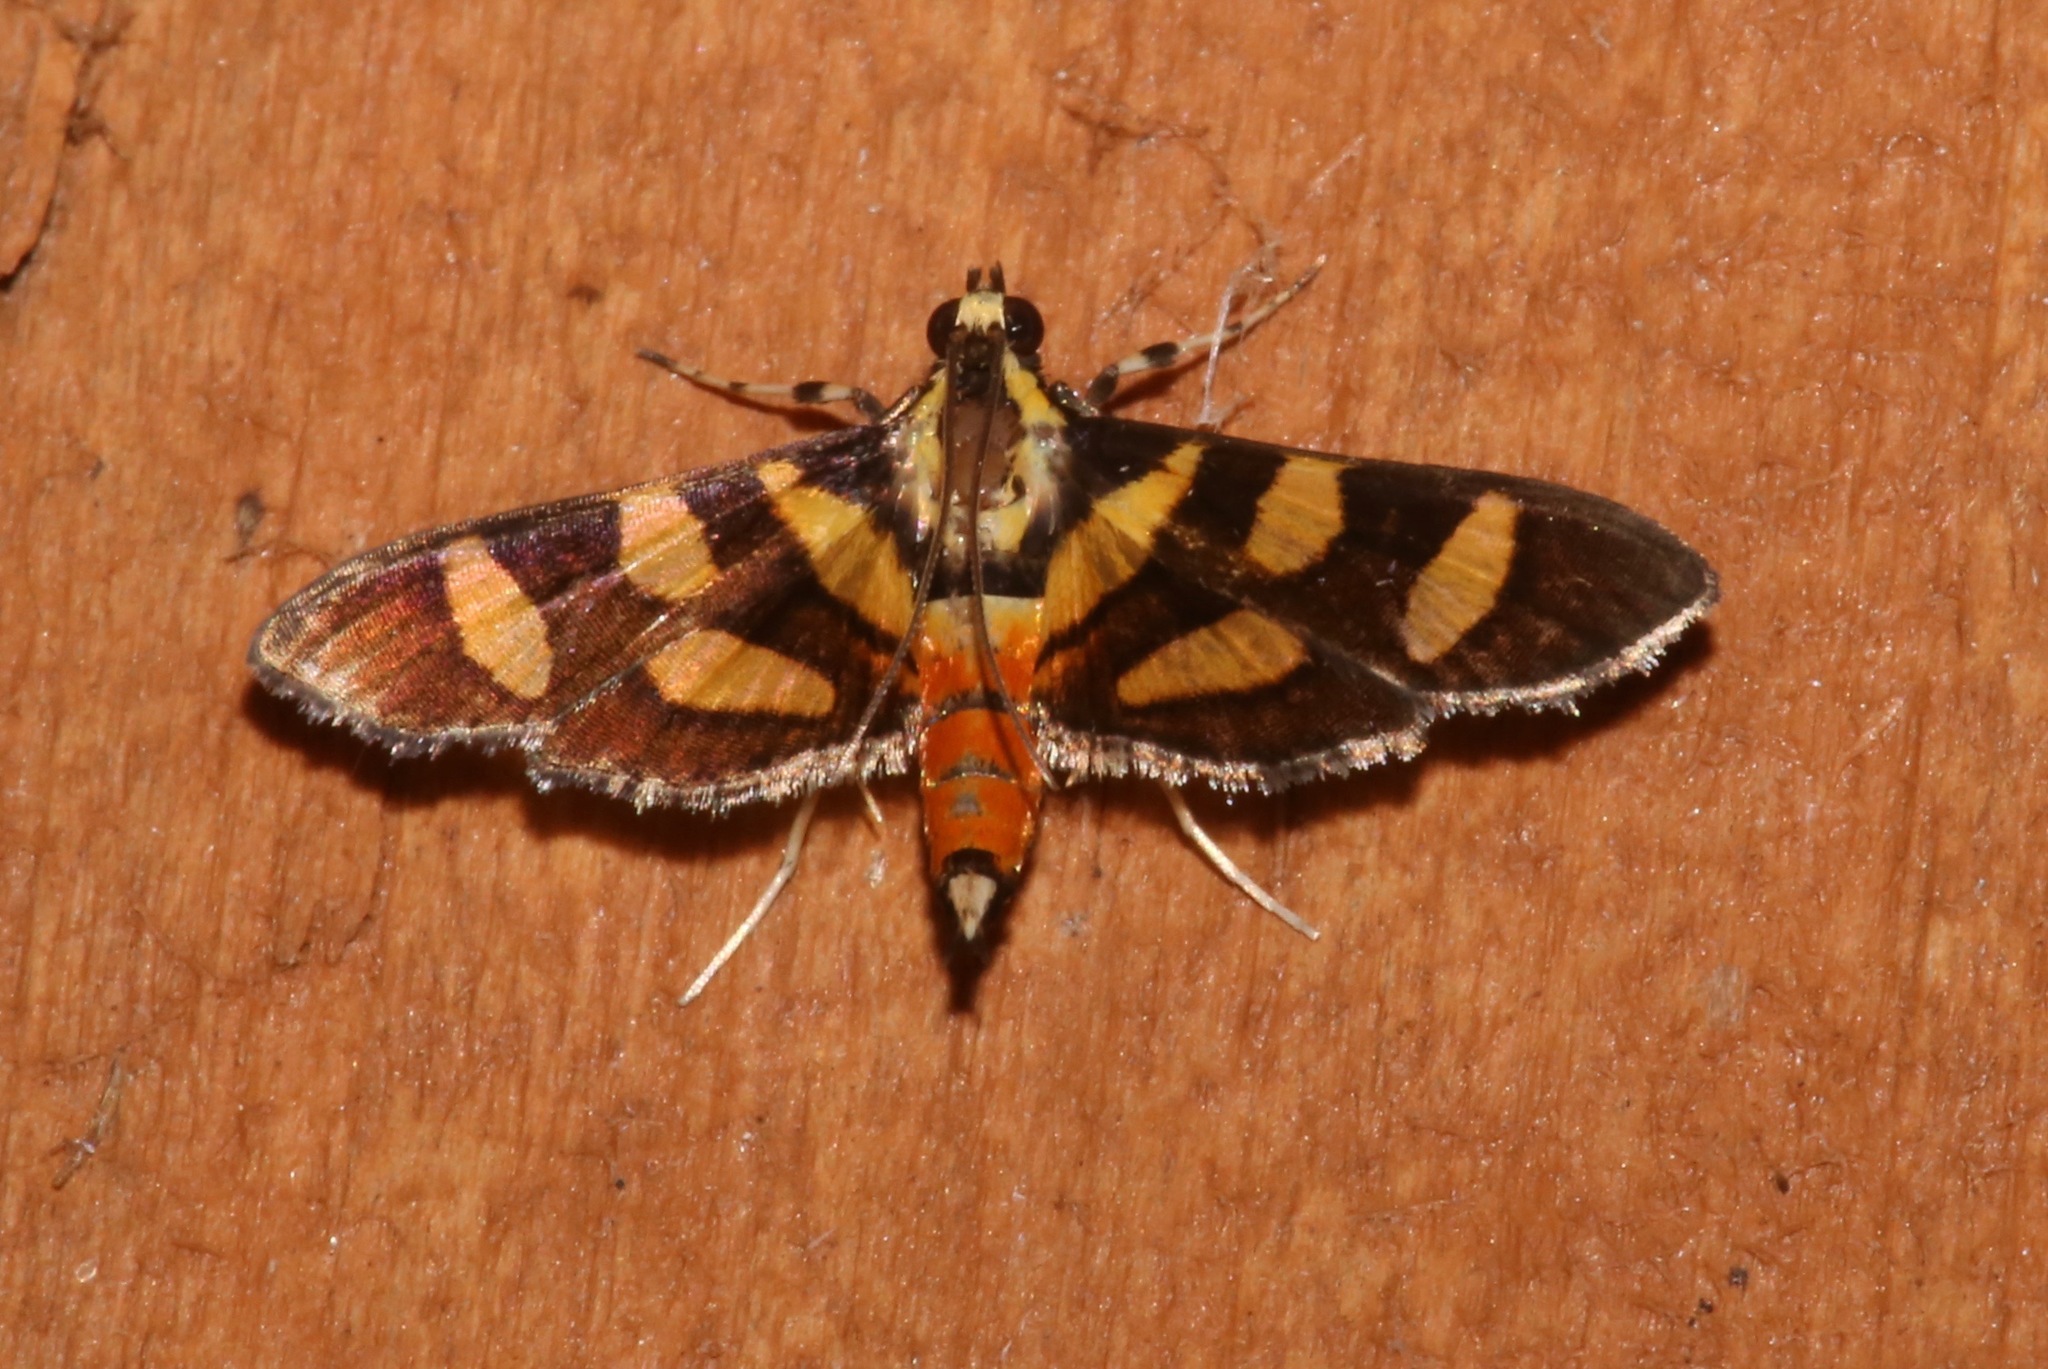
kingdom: Animalia
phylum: Arthropoda
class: Insecta
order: Lepidoptera
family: Crambidae
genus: Syngamia
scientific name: Syngamia florella
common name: Orange-spotted flower moth
